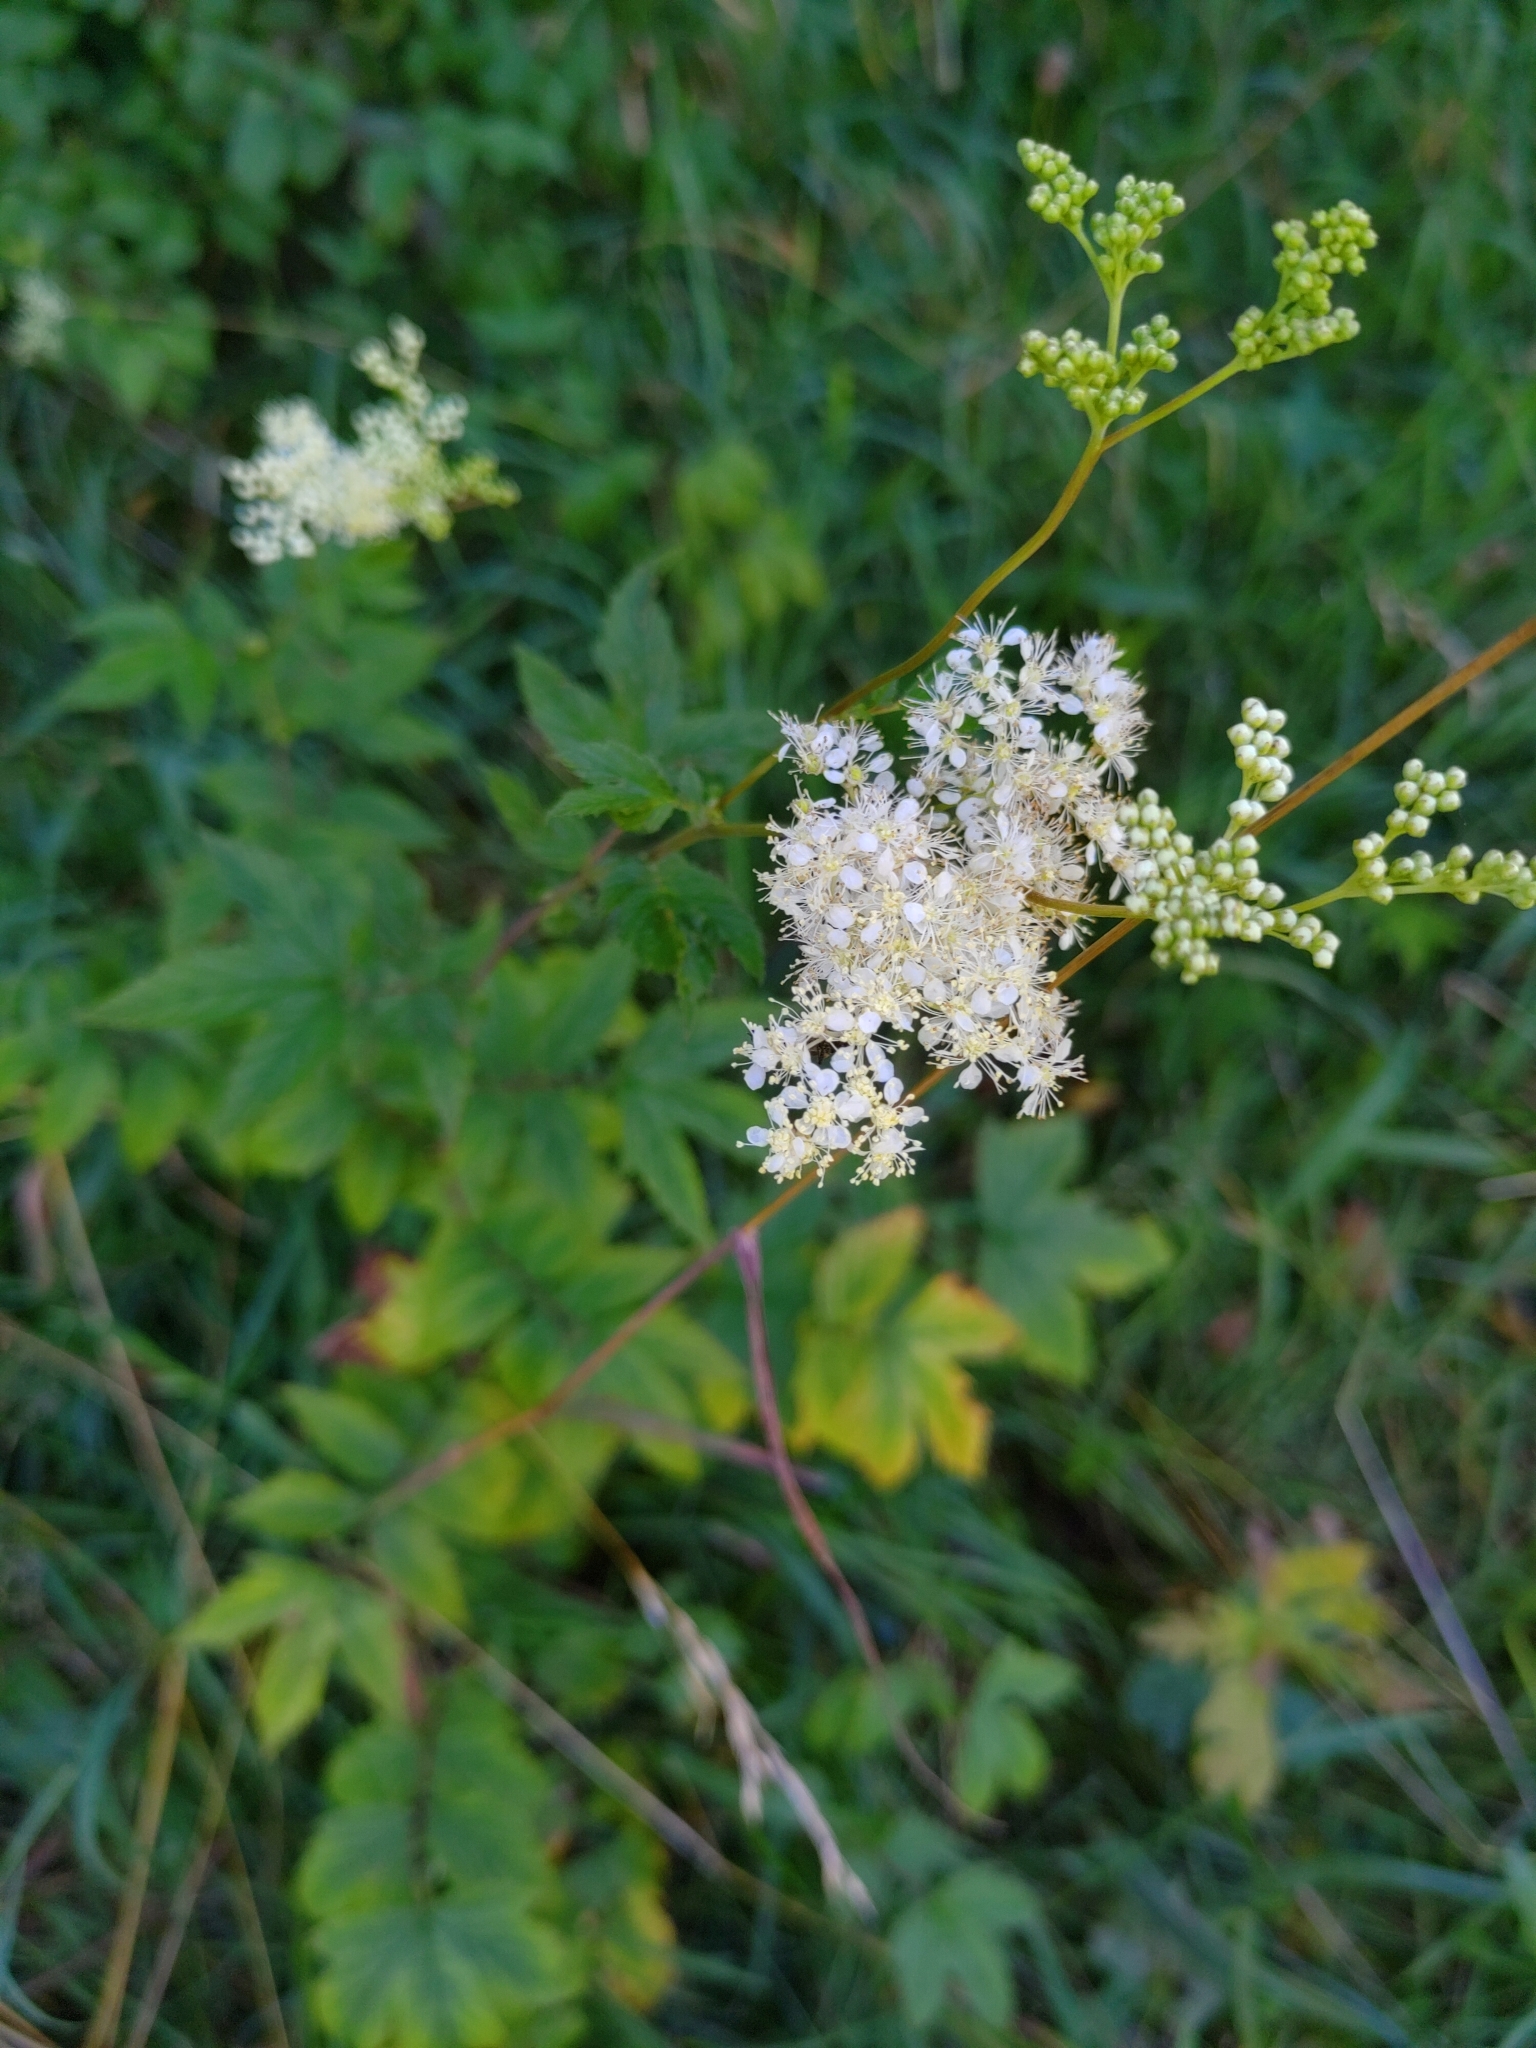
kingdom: Plantae
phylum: Tracheophyta
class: Magnoliopsida
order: Rosales
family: Rosaceae
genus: Filipendula
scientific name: Filipendula ulmaria
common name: Meadowsweet
